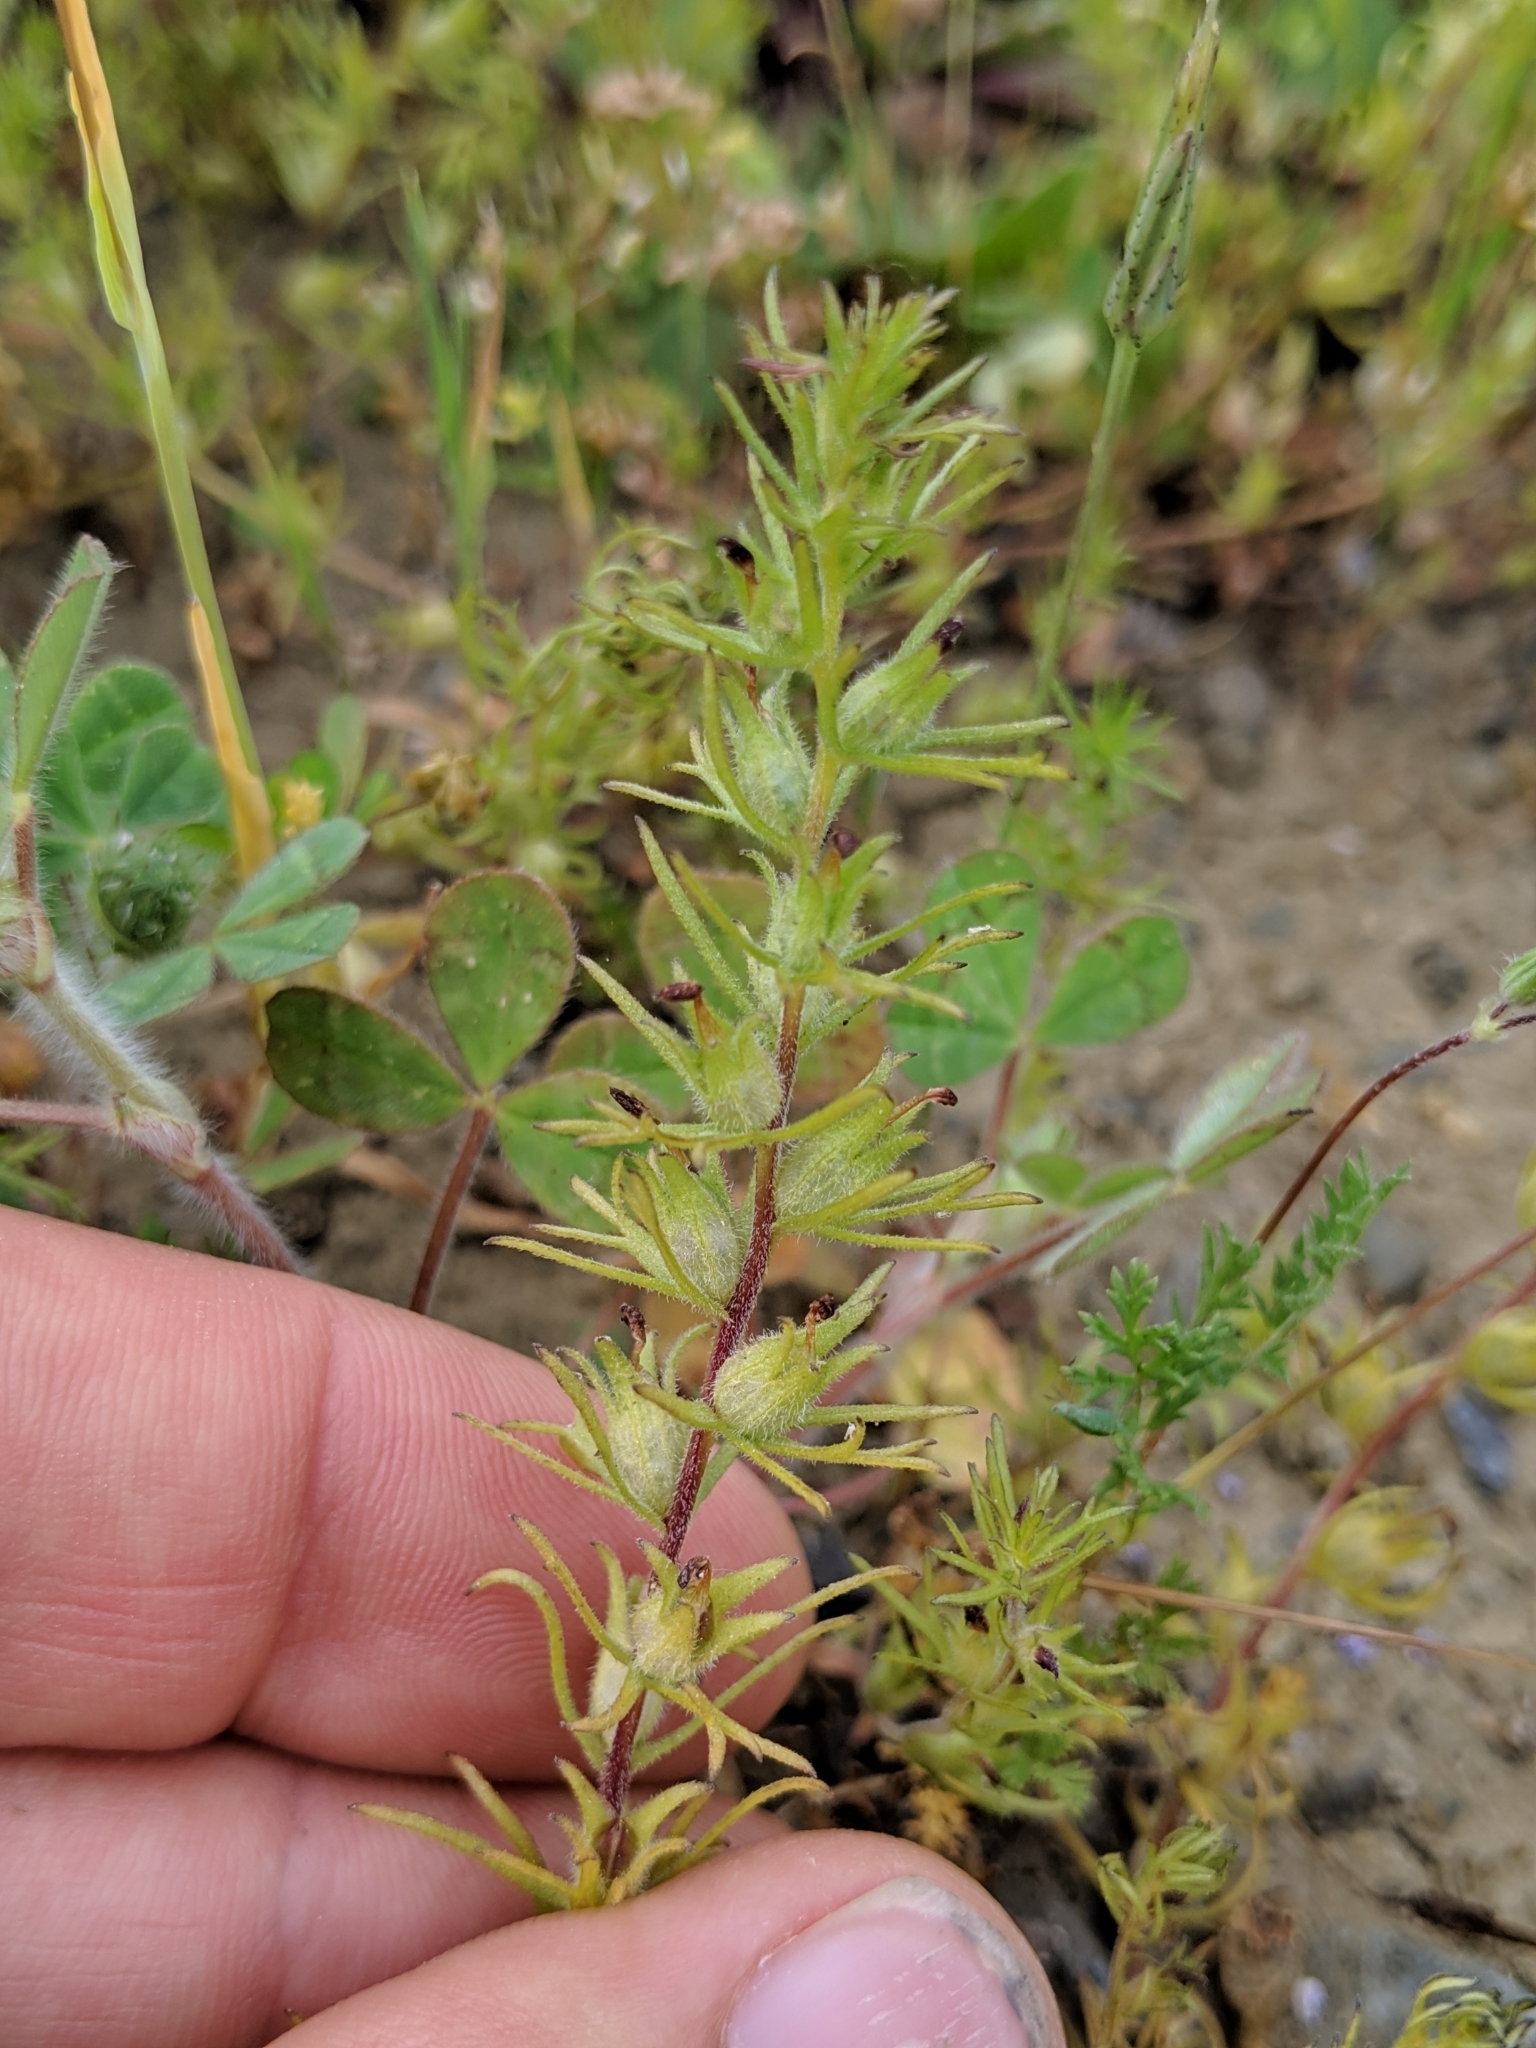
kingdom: Plantae
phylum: Tracheophyta
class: Magnoliopsida
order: Lamiales
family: Orobanchaceae
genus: Triphysaria
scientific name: Triphysaria pusilla
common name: Dwarf false owl-clover
